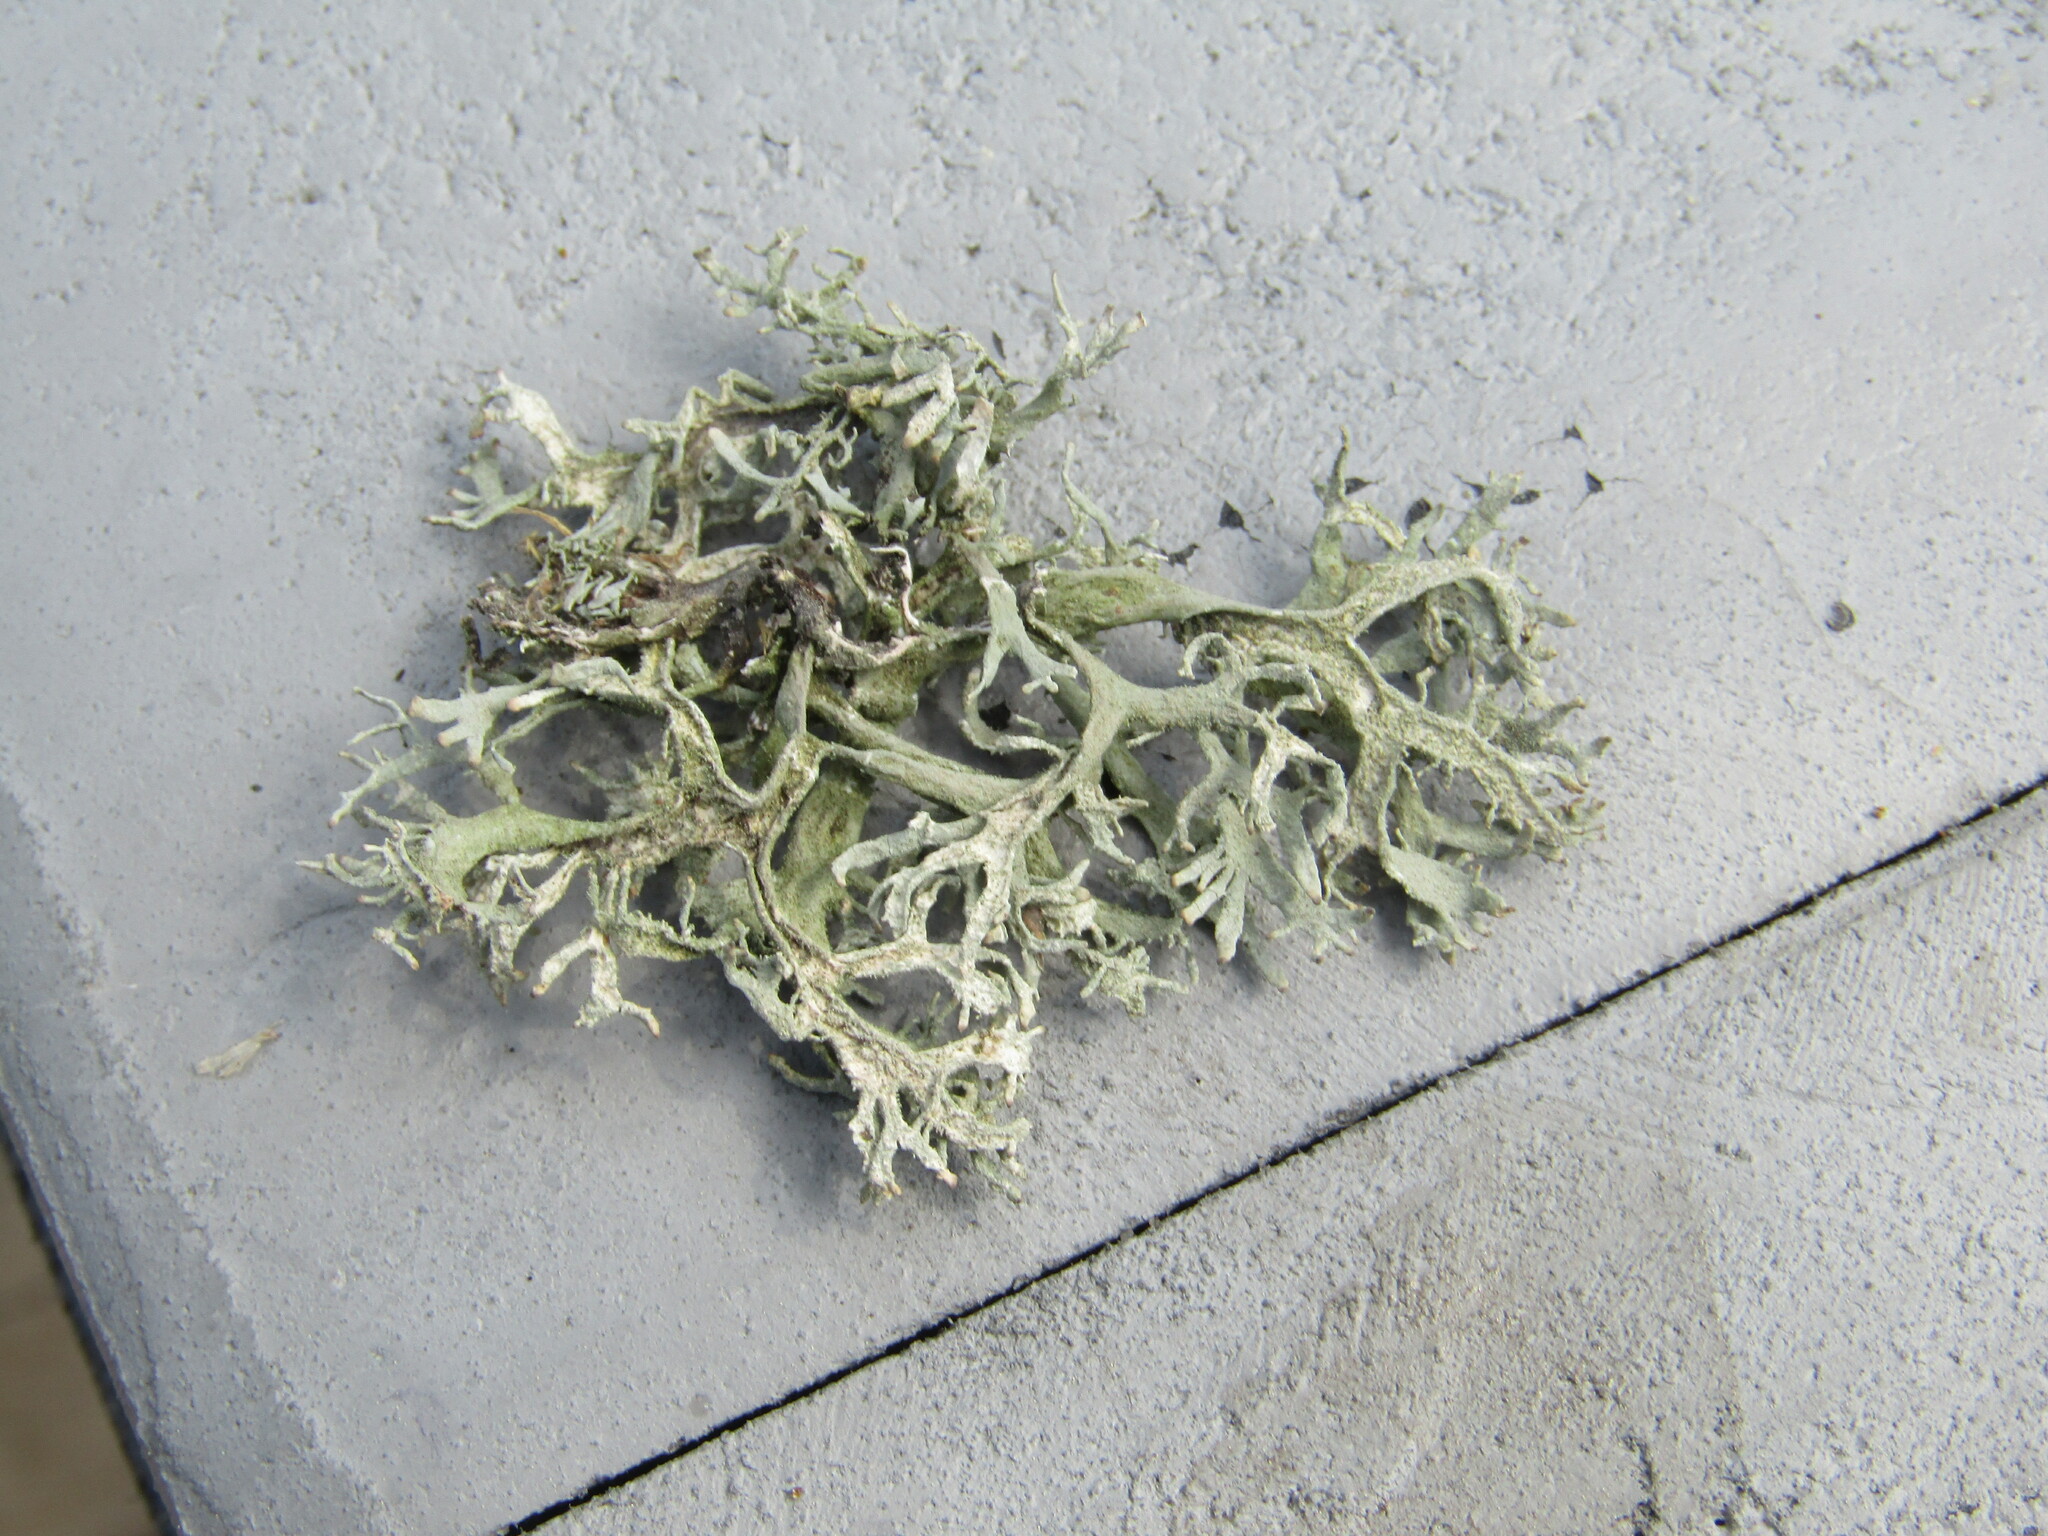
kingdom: Fungi
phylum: Ascomycota
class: Lecanoromycetes
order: Lecanorales
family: Parmeliaceae
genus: Evernia
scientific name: Evernia prunastri
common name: Oak moss
